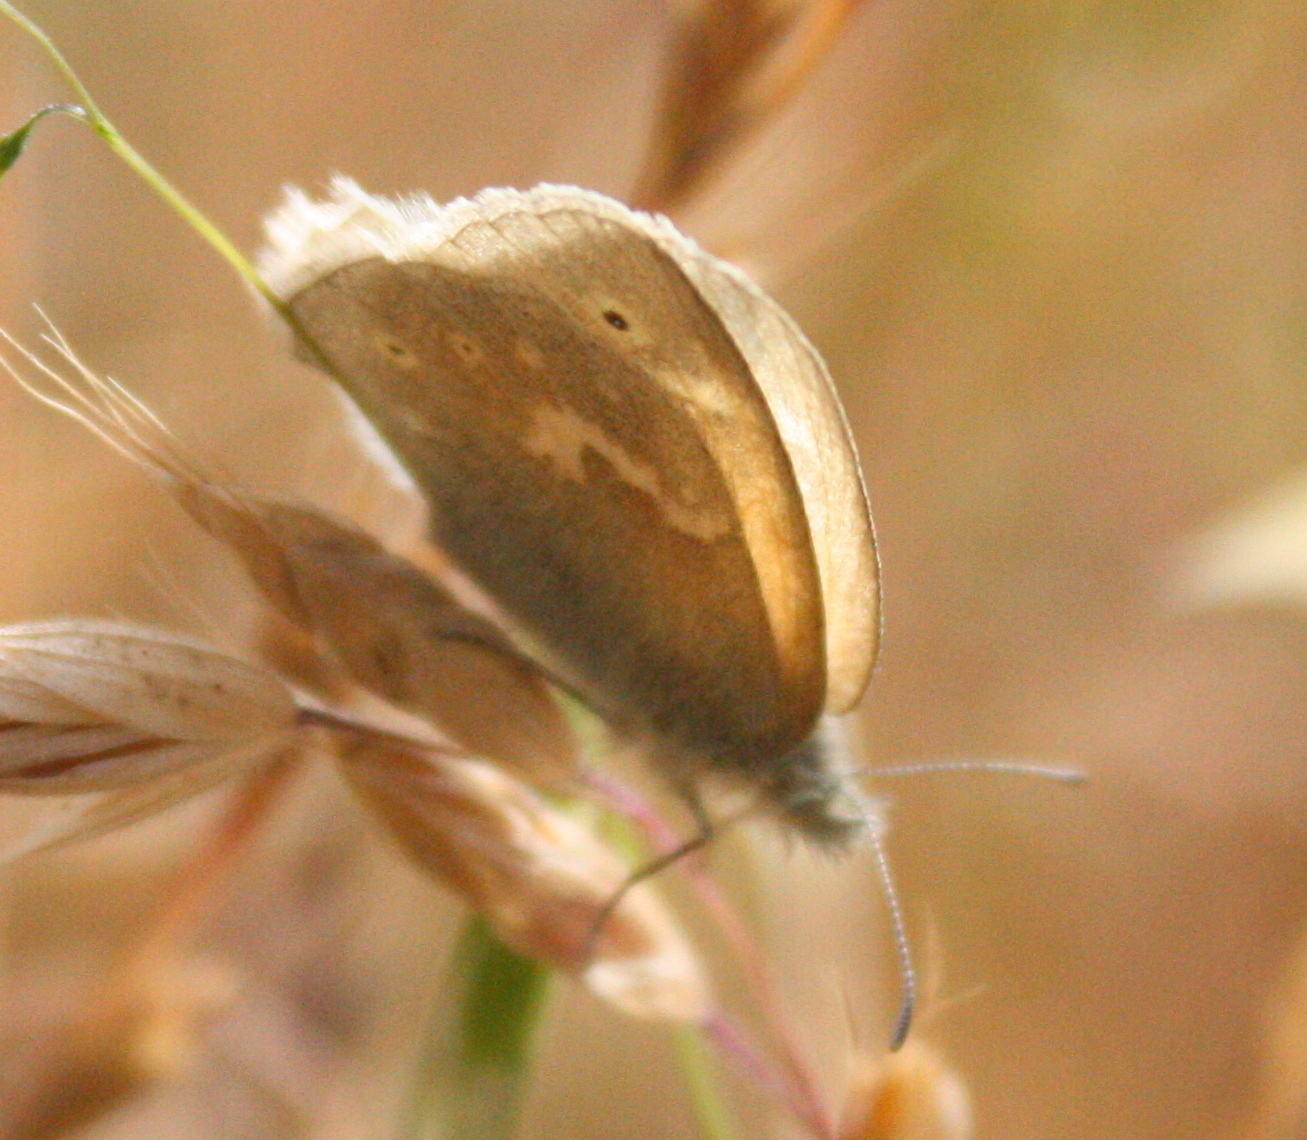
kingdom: Animalia
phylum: Arthropoda
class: Insecta
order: Lepidoptera
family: Nymphalidae
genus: Coenonympha
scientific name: Coenonympha california
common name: Common ringlet
